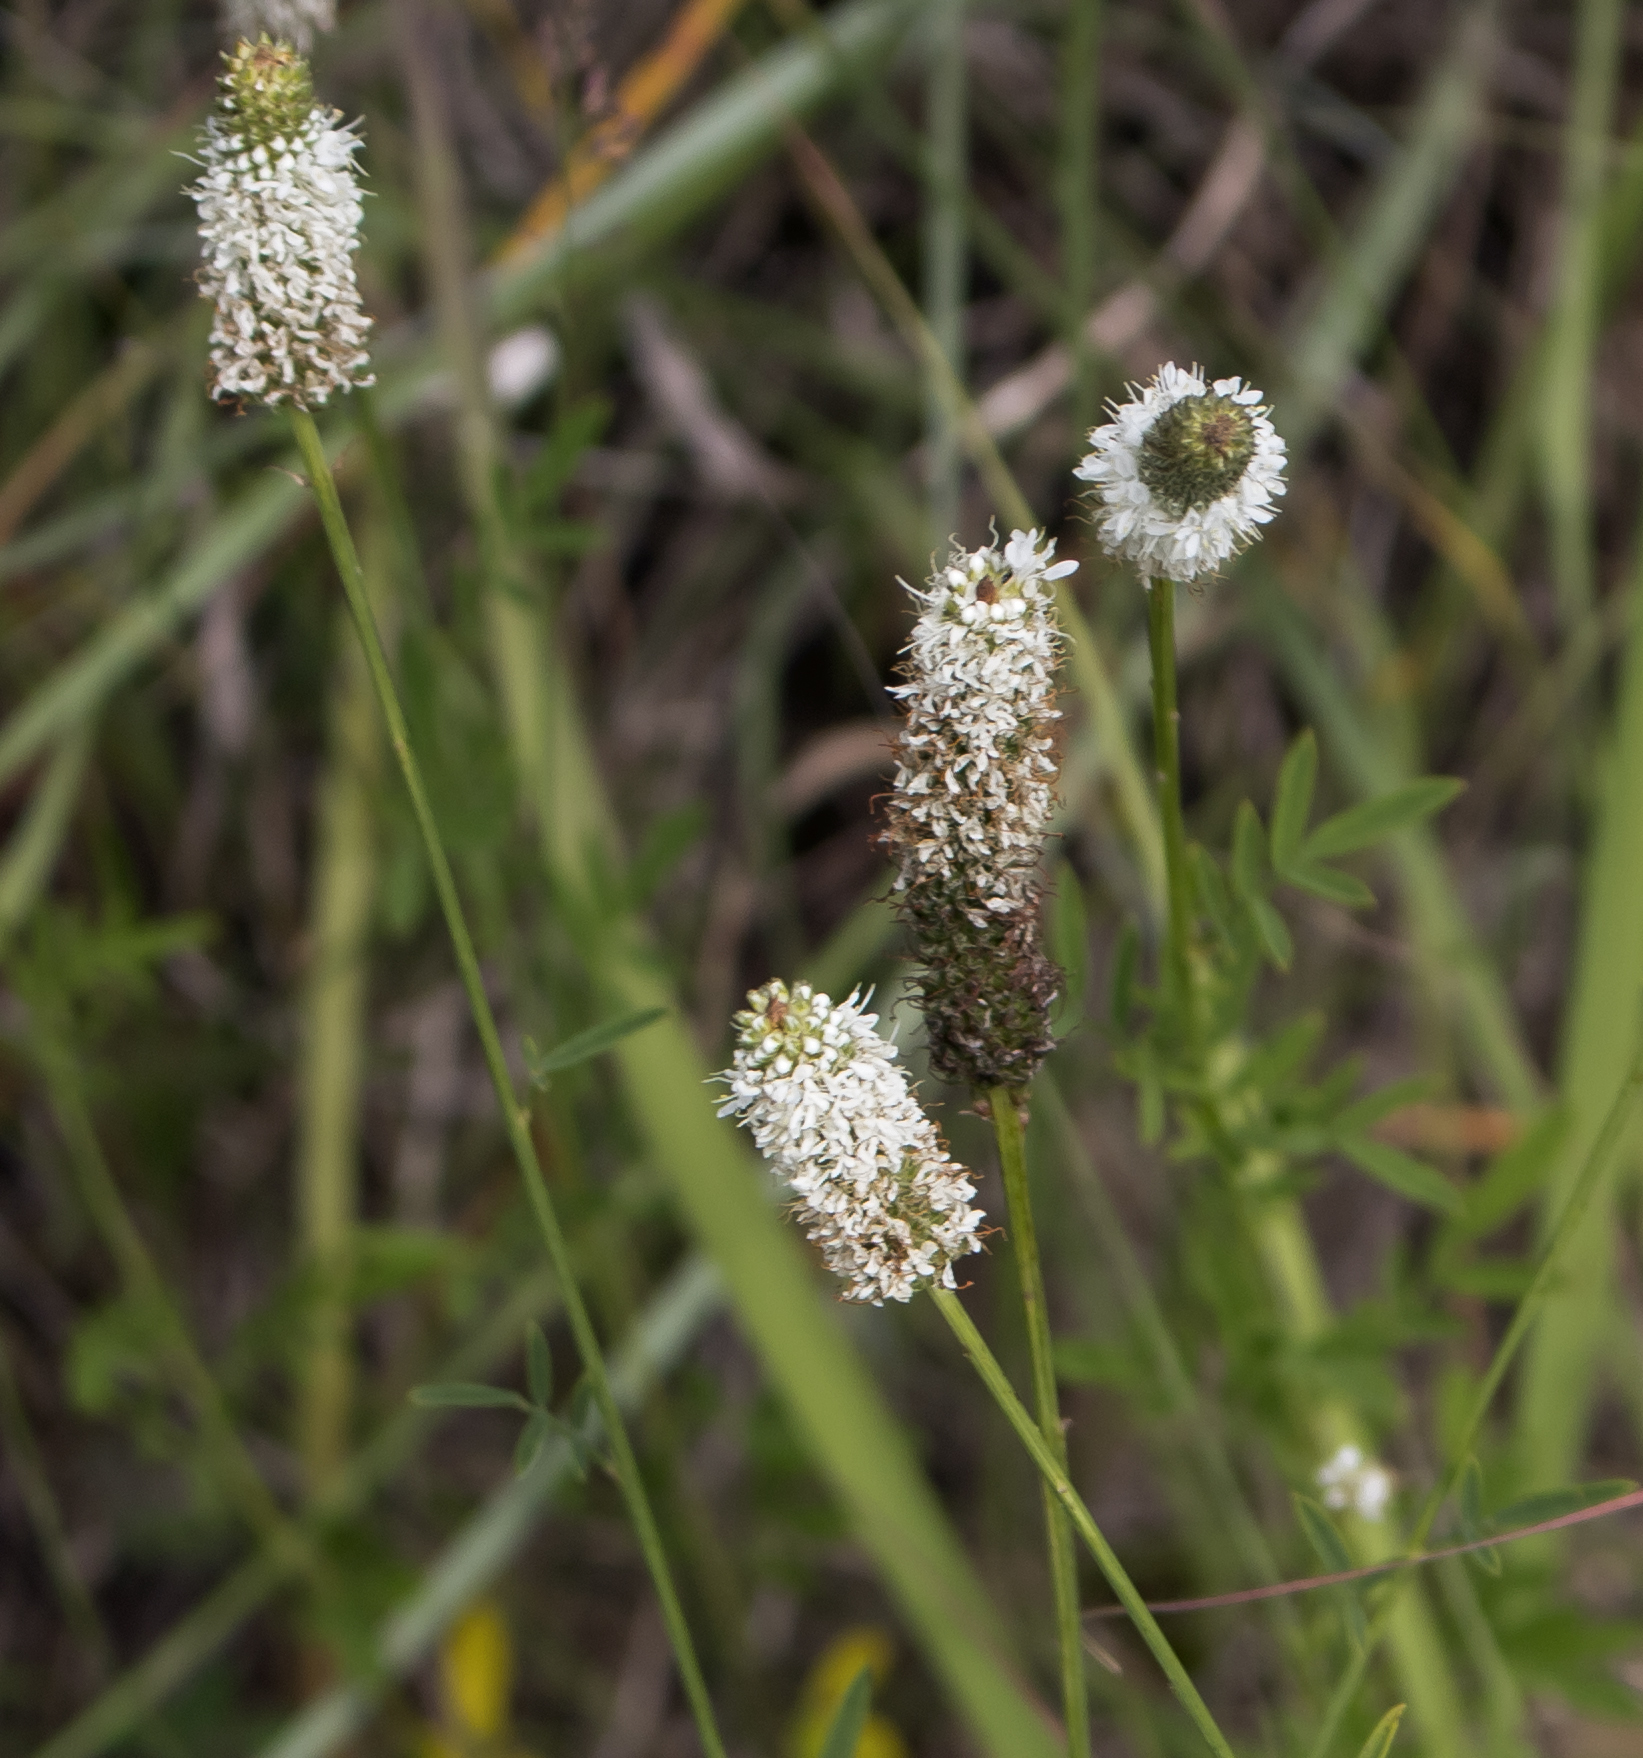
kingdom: Plantae
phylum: Tracheophyta
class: Magnoliopsida
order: Fabales
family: Fabaceae
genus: Dalea
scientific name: Dalea candida
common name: White prairie-clover
